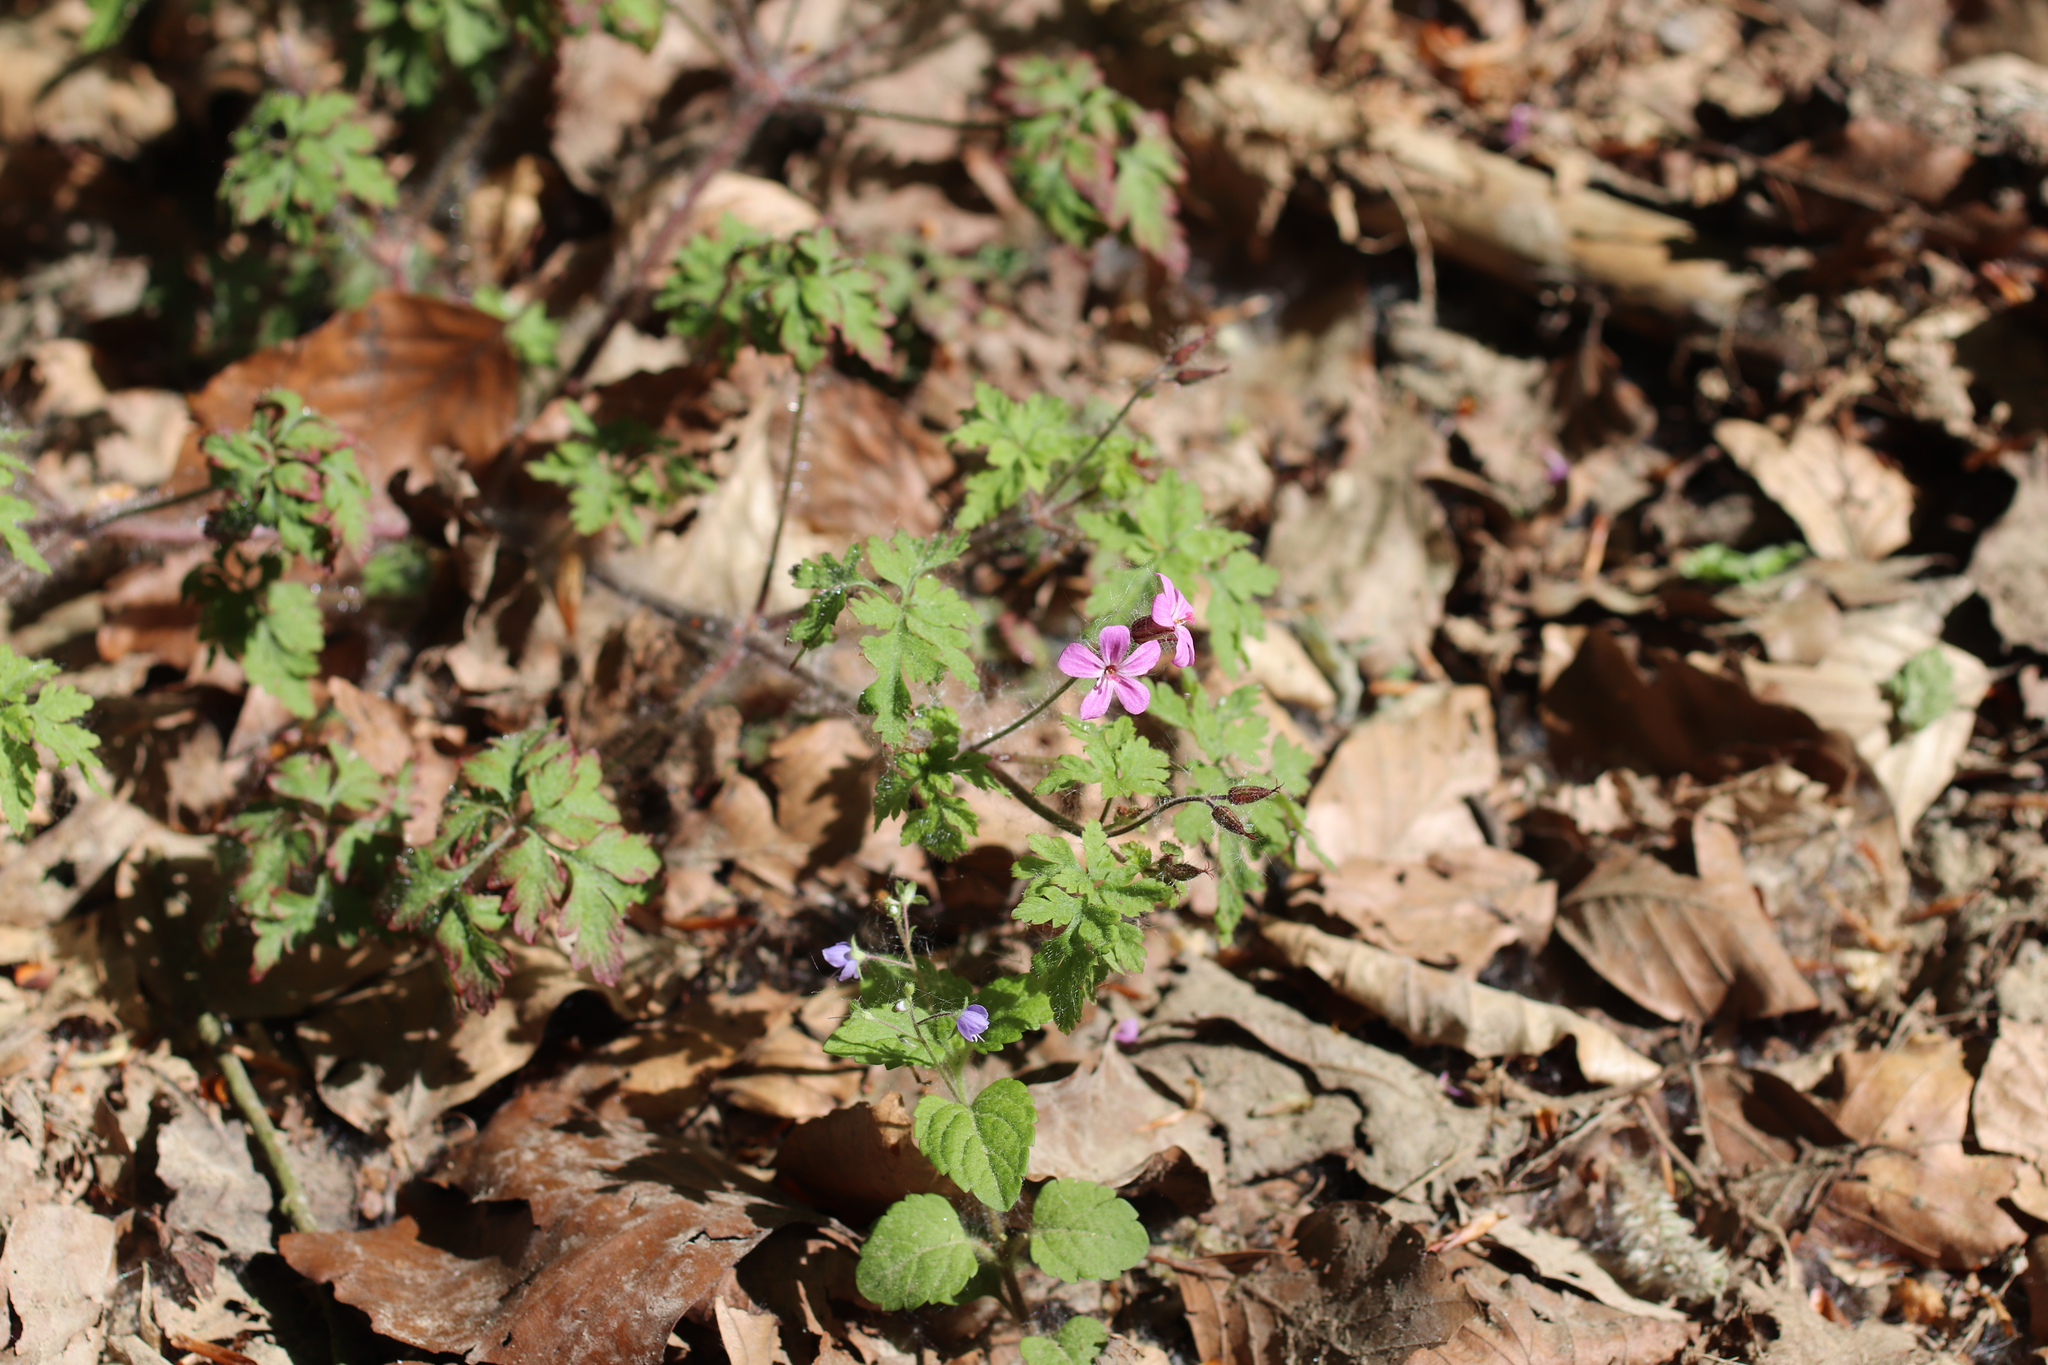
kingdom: Plantae
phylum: Tracheophyta
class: Magnoliopsida
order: Geraniales
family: Geraniaceae
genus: Geranium
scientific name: Geranium robertianum
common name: Herb-robert
